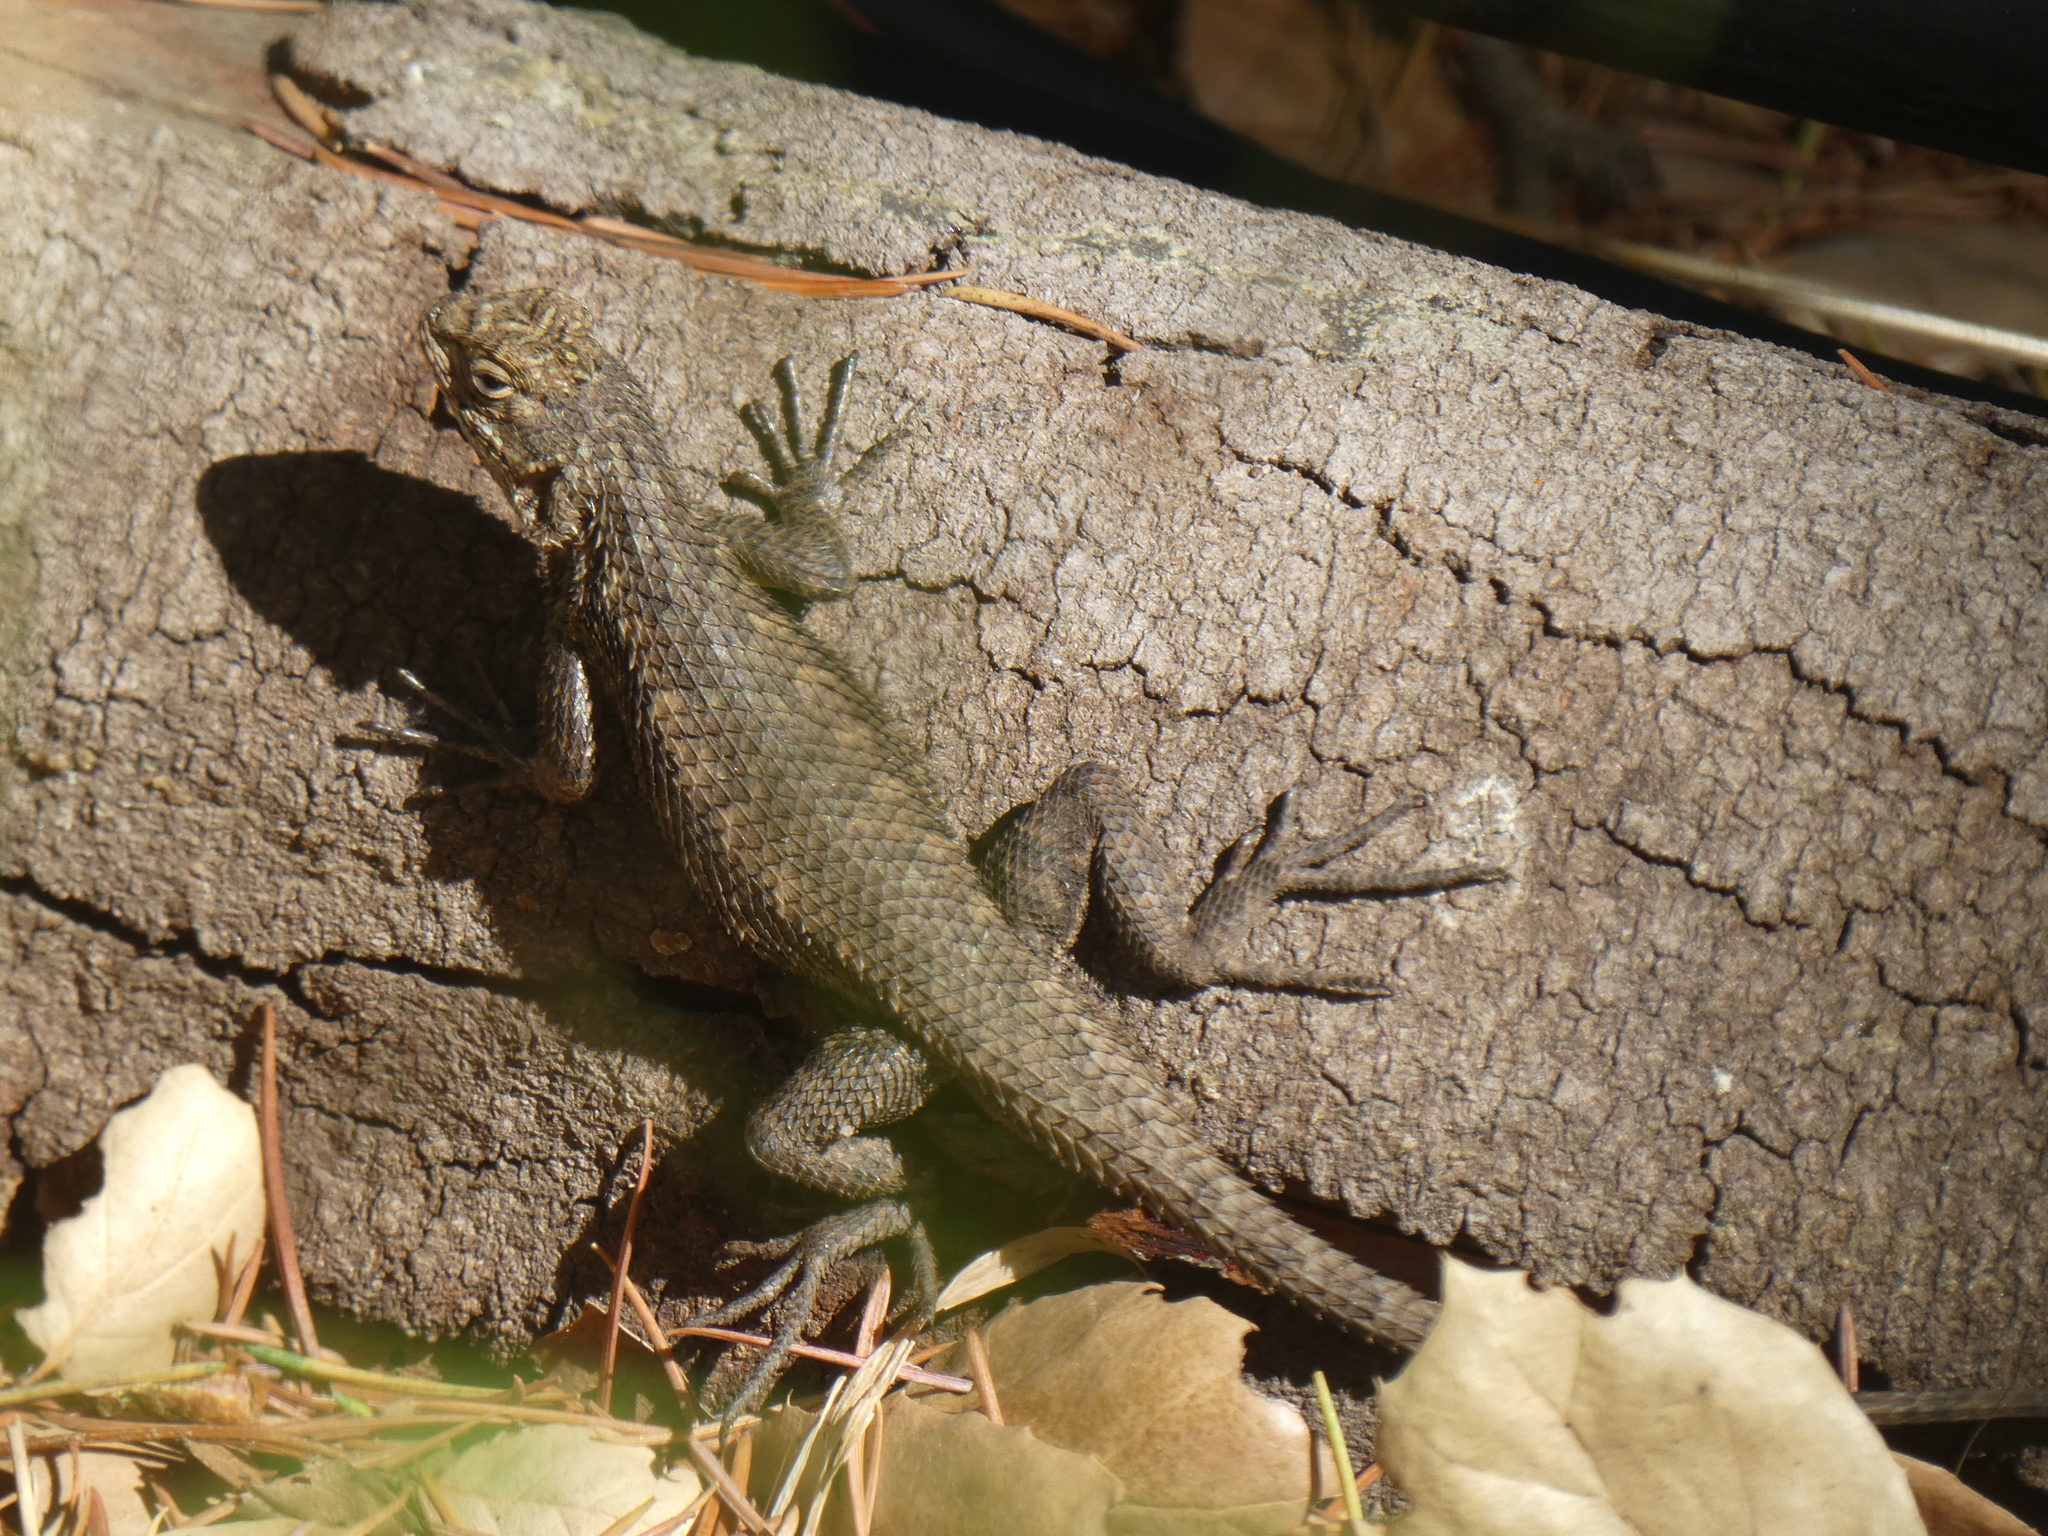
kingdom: Animalia
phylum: Chordata
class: Squamata
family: Phrynosomatidae
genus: Sceloporus
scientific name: Sceloporus occidentalis
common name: Western fence lizard
